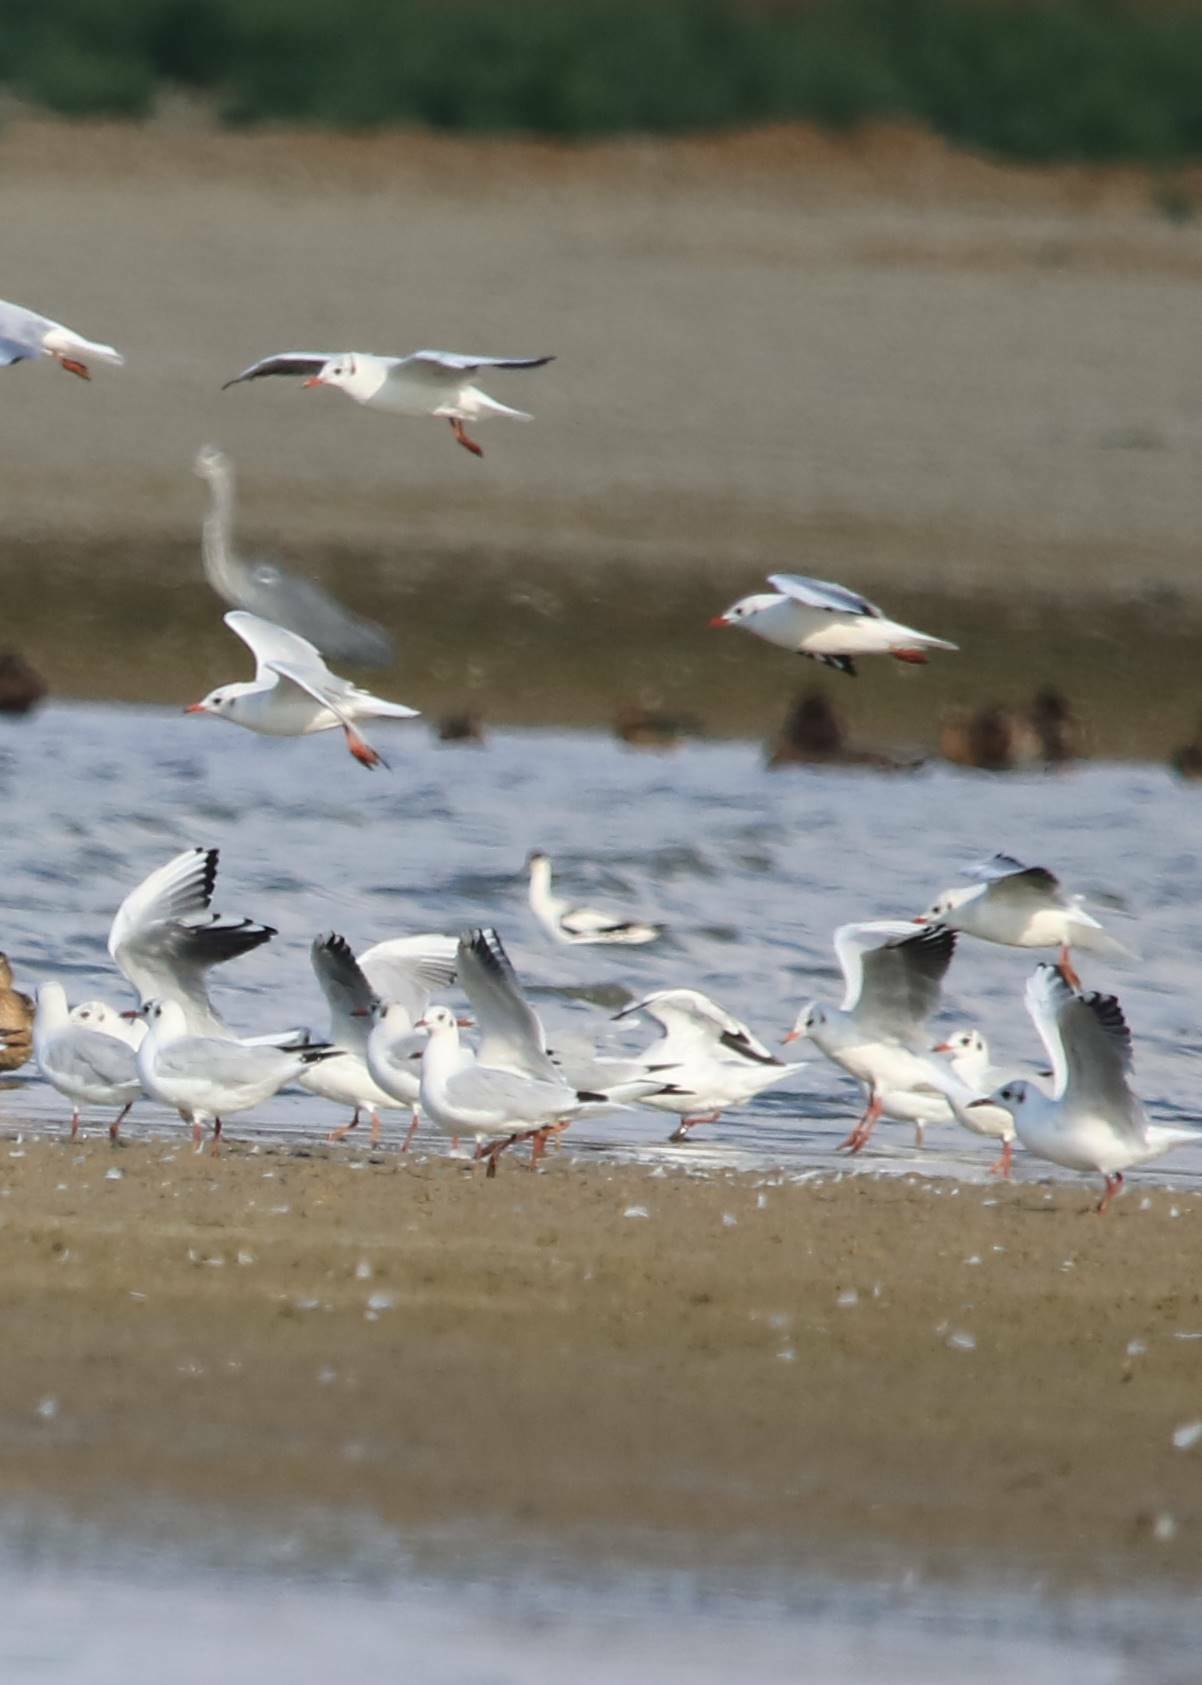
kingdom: Animalia
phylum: Chordata
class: Aves
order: Charadriiformes
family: Laridae
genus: Chroicocephalus
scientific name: Chroicocephalus ridibundus
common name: Black-headed gull
